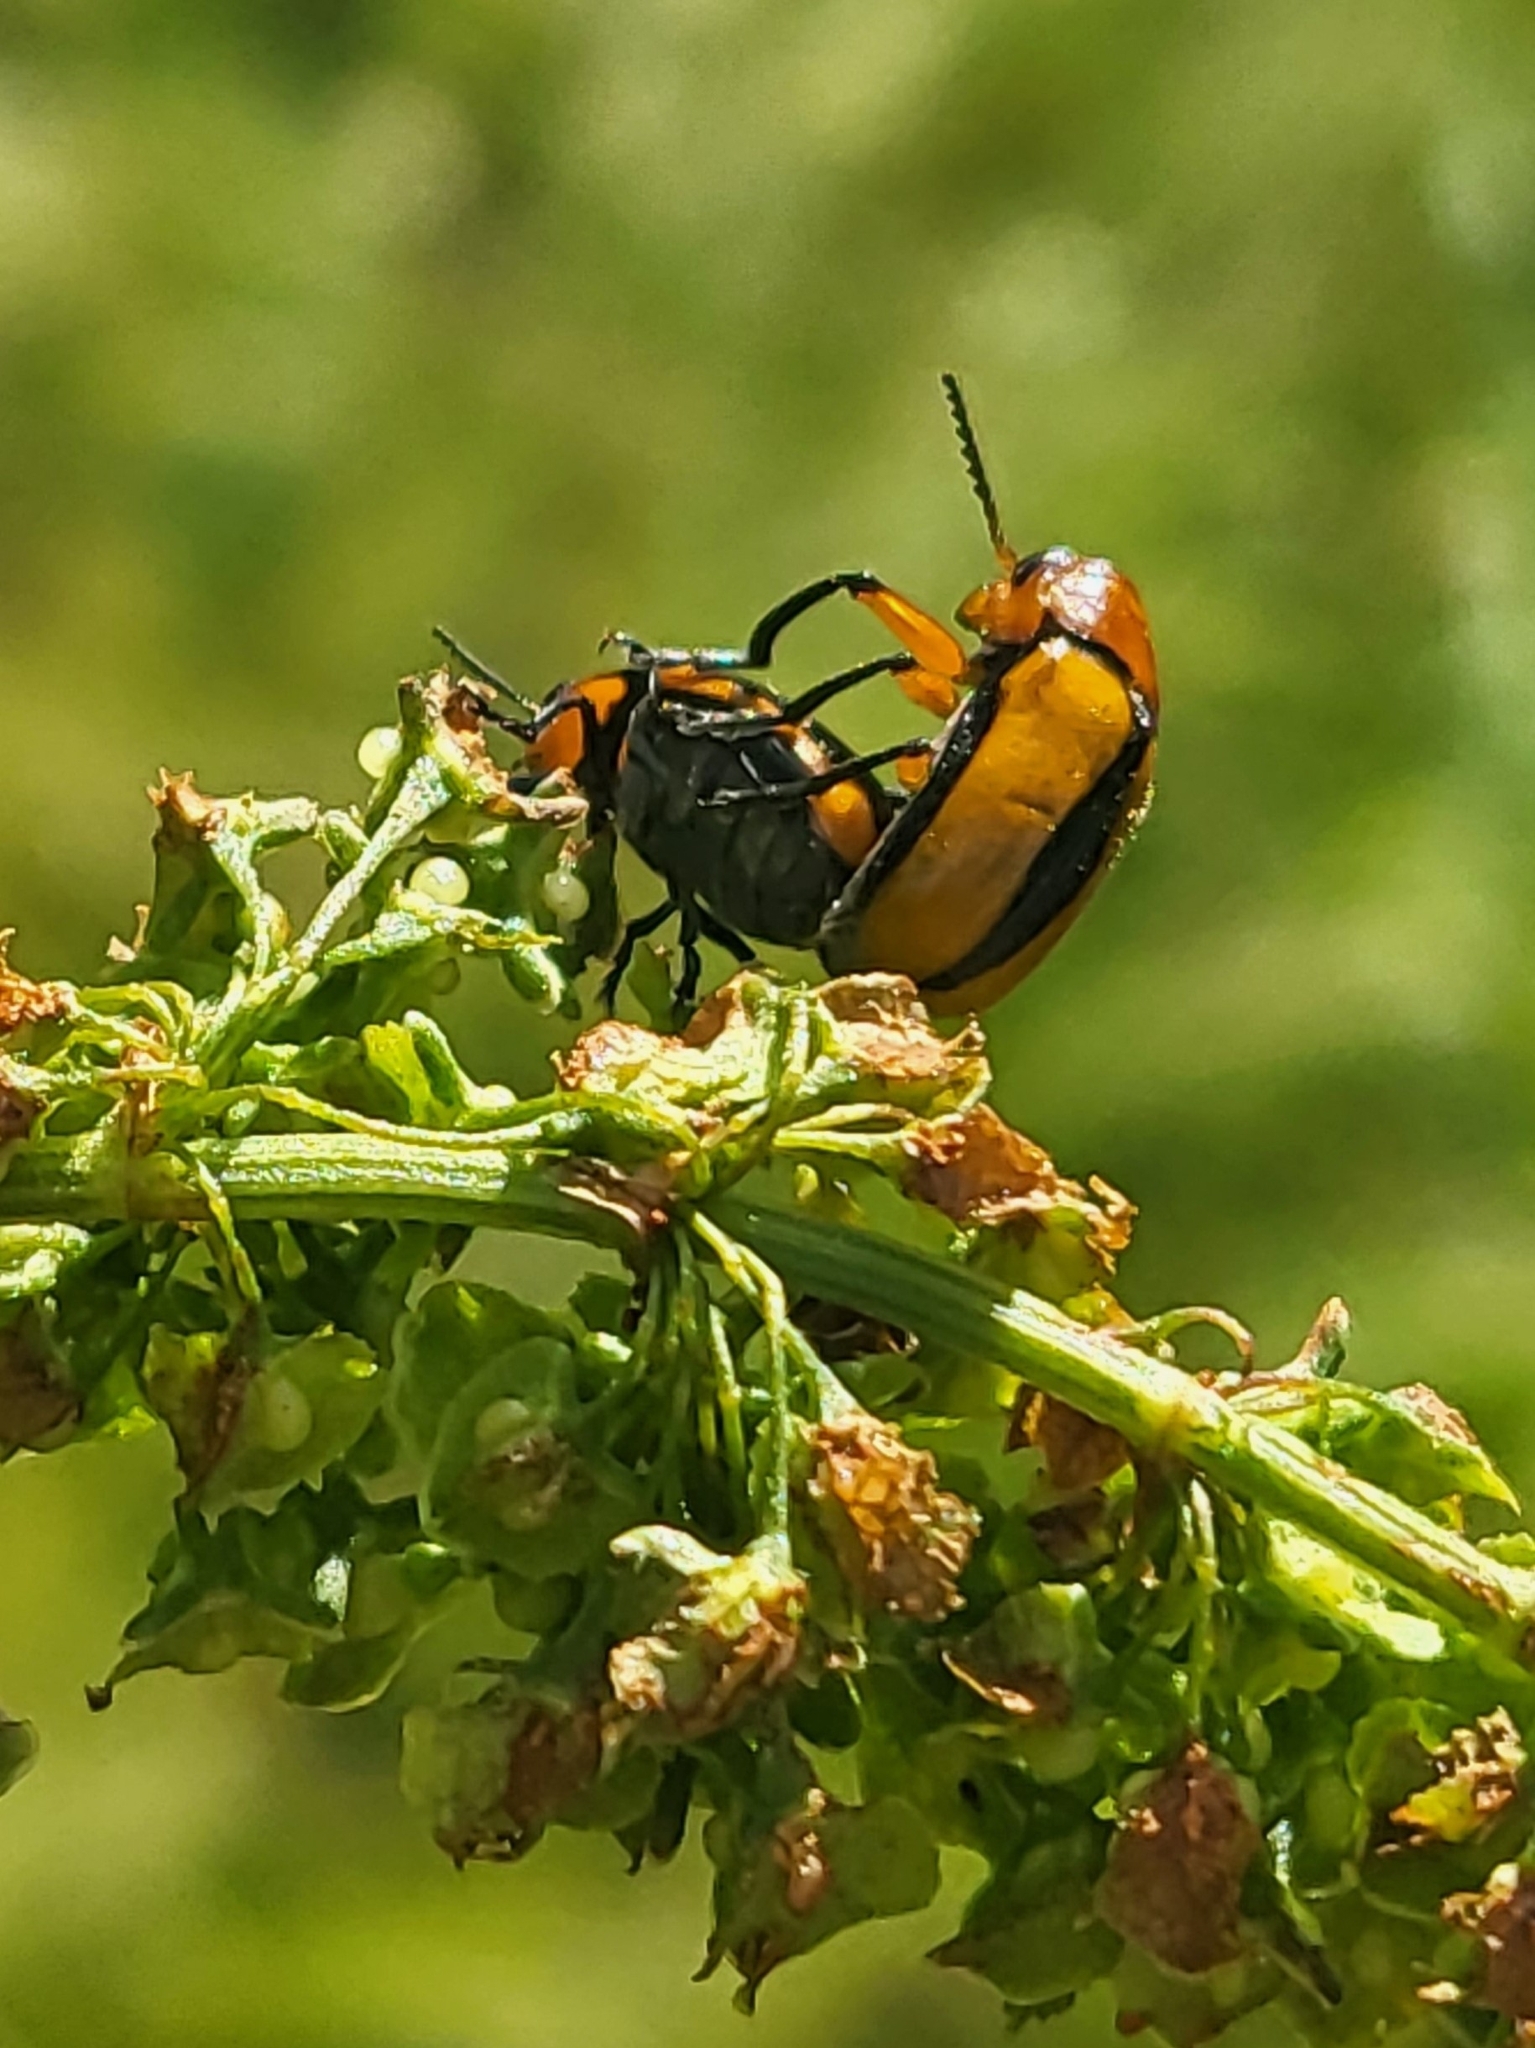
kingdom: Animalia
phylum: Arthropoda
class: Insecta
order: Coleoptera
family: Chrysomelidae
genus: Anomoea
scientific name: Anomoea laticlavia
